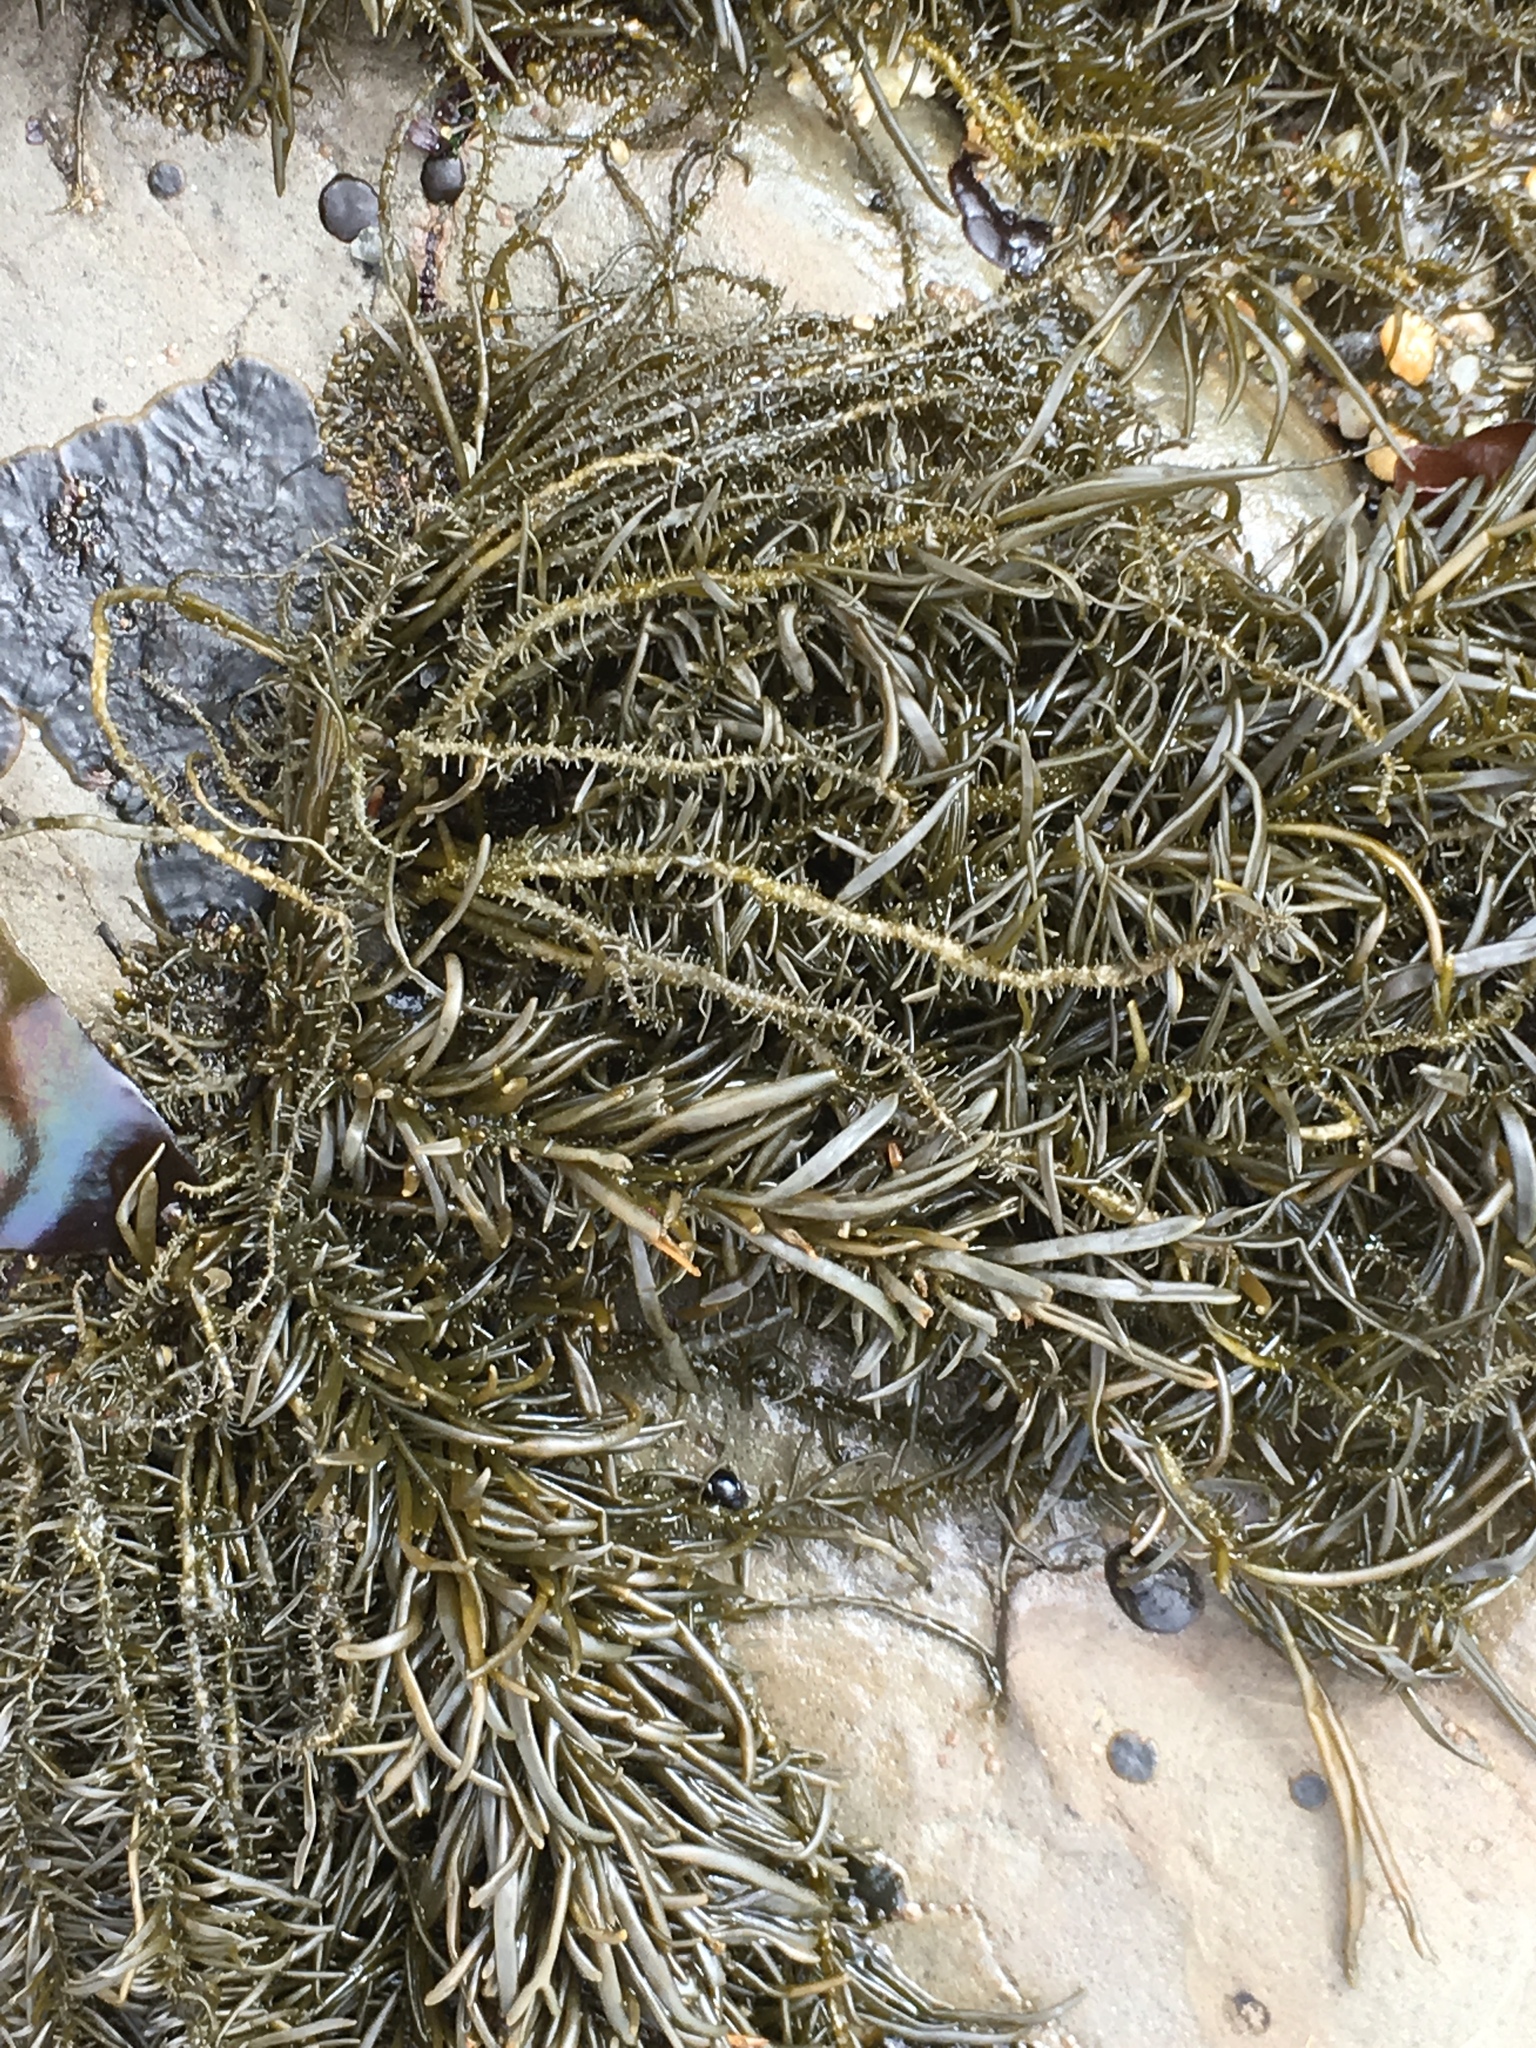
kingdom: Chromista
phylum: Ochrophyta
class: Phaeophyceae
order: Scytosiphonales
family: Scytosiphonaceae
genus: Analipus
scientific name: Analipus japonicus
